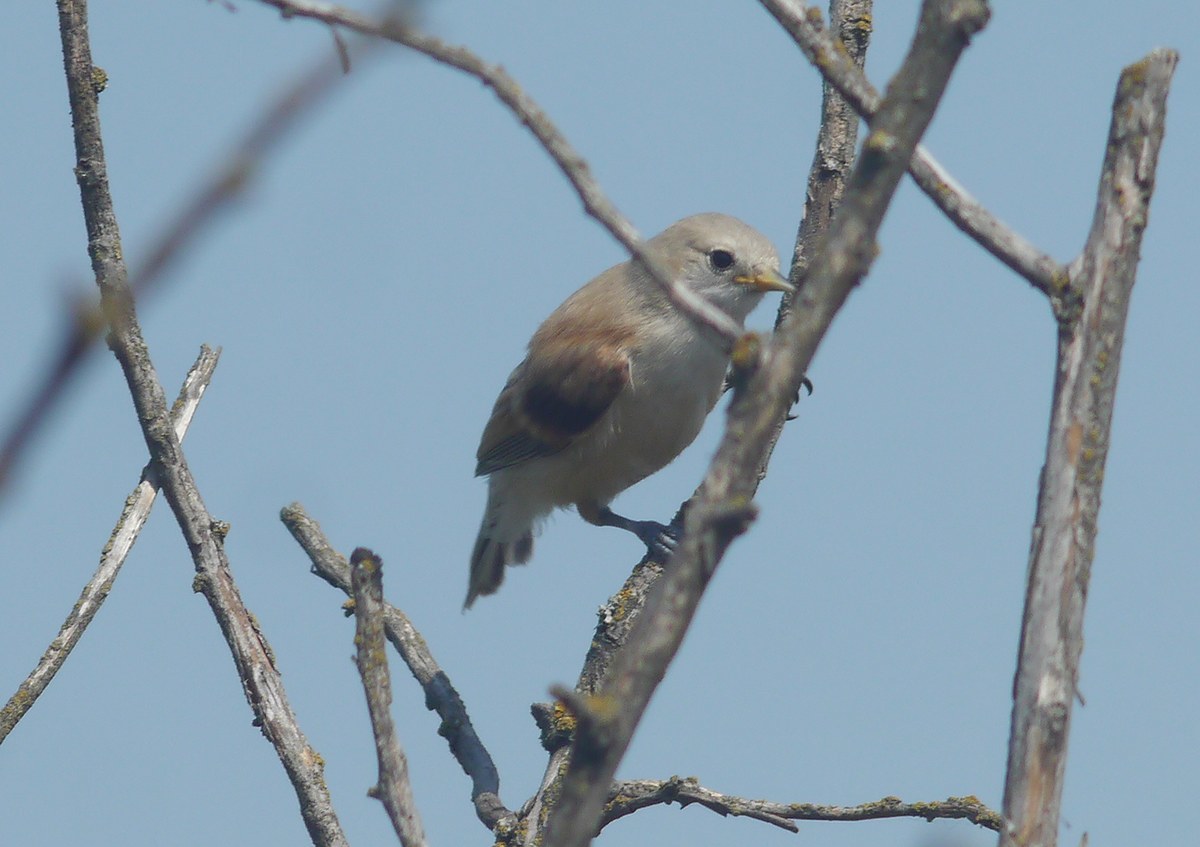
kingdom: Animalia
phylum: Chordata
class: Aves
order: Passeriformes
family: Remizidae
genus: Remiz
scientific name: Remiz pendulinus
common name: Eurasian penduline tit
